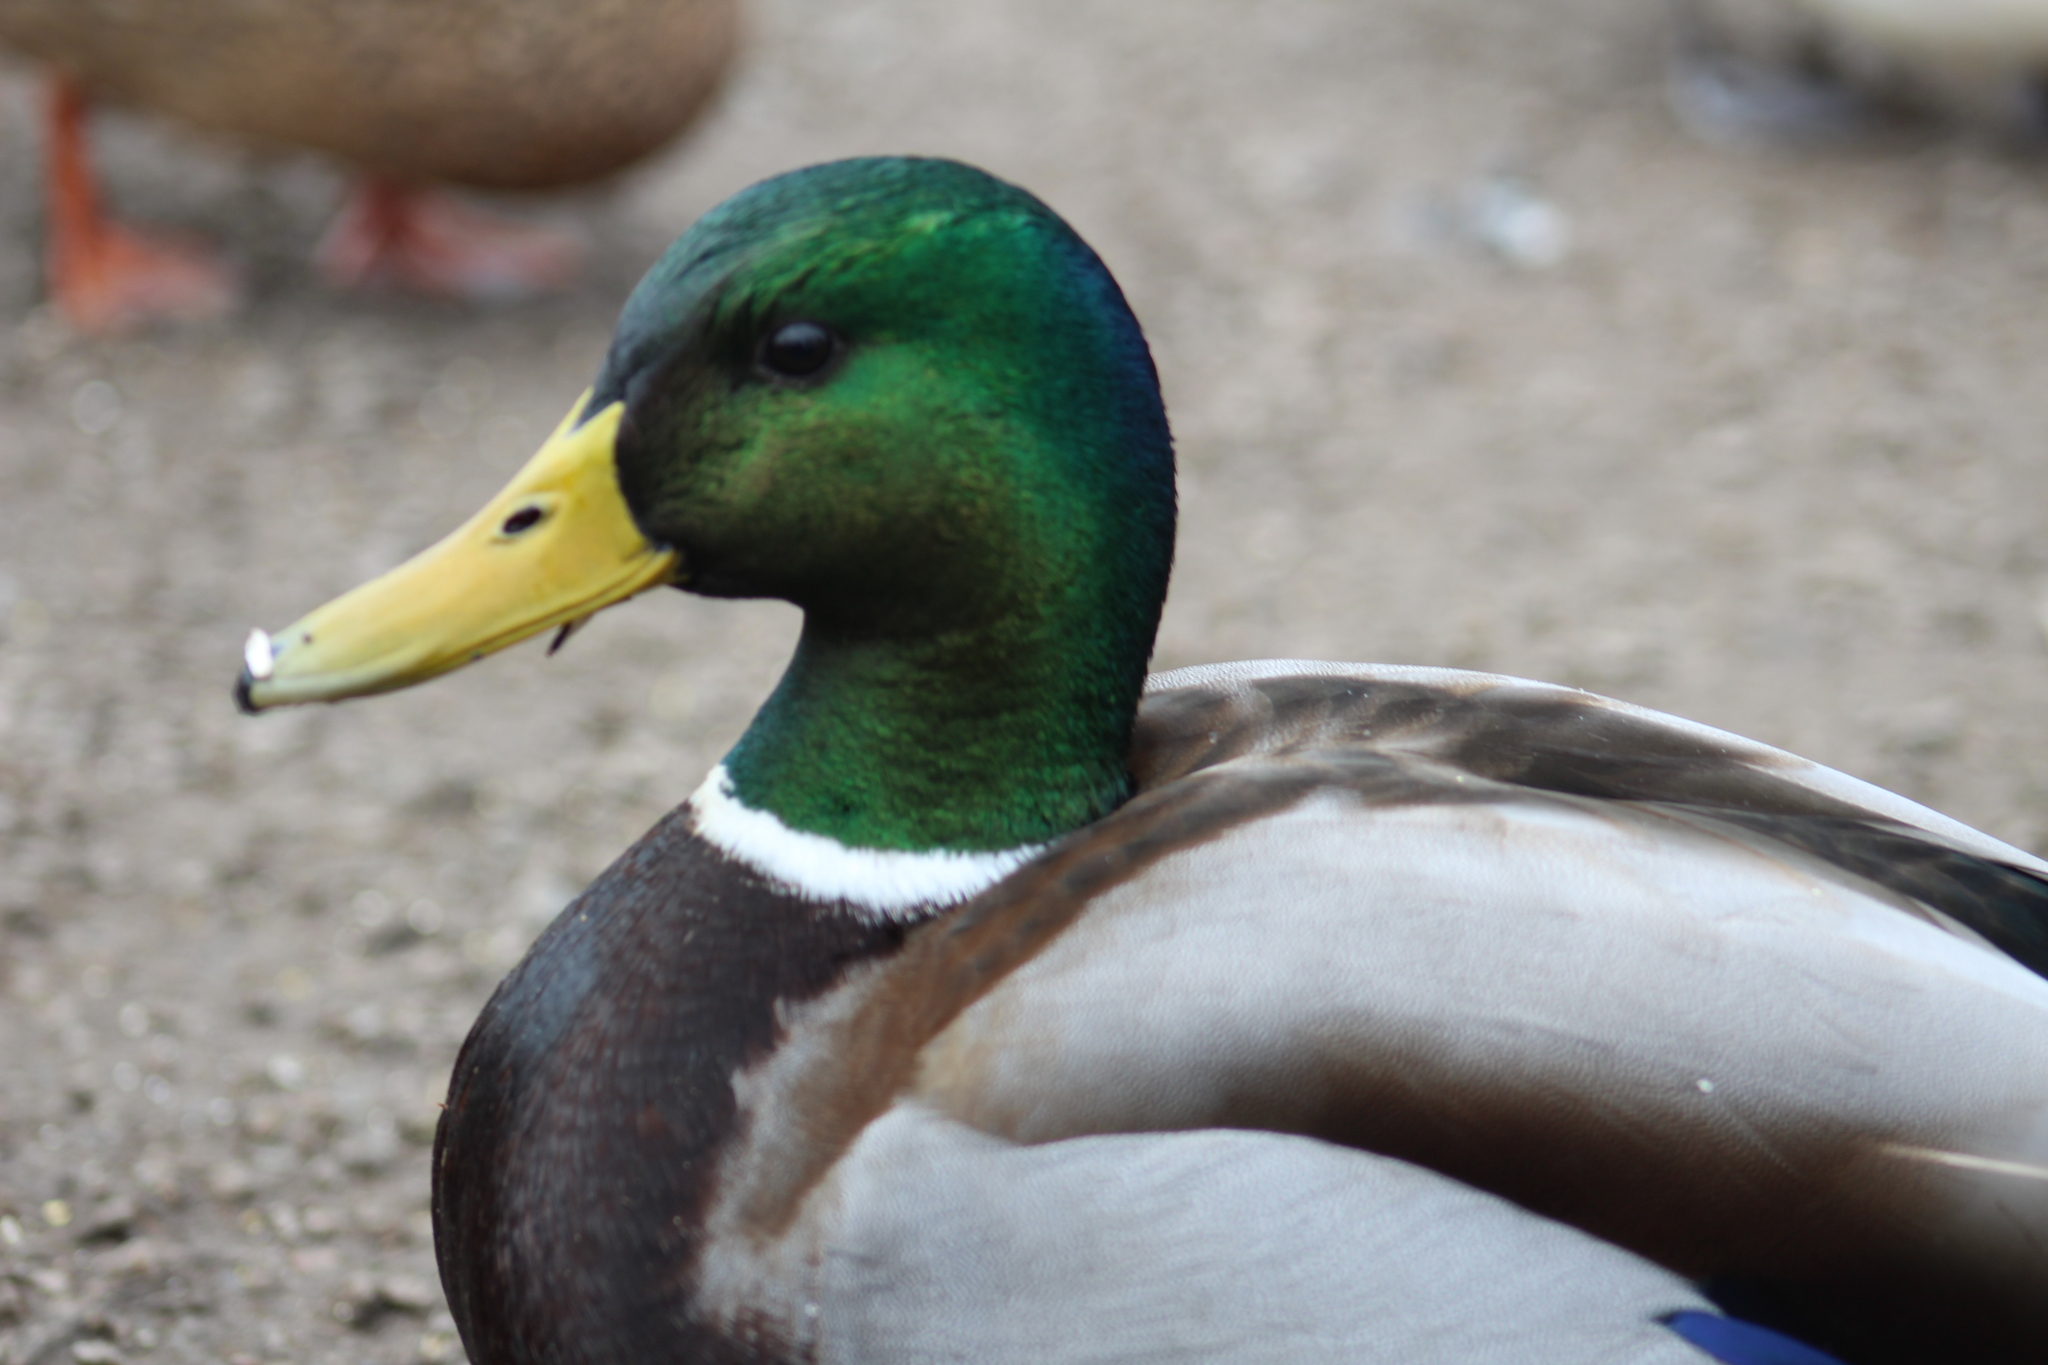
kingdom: Animalia
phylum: Chordata
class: Aves
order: Anseriformes
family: Anatidae
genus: Anas
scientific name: Anas platyrhynchos
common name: Mallard
